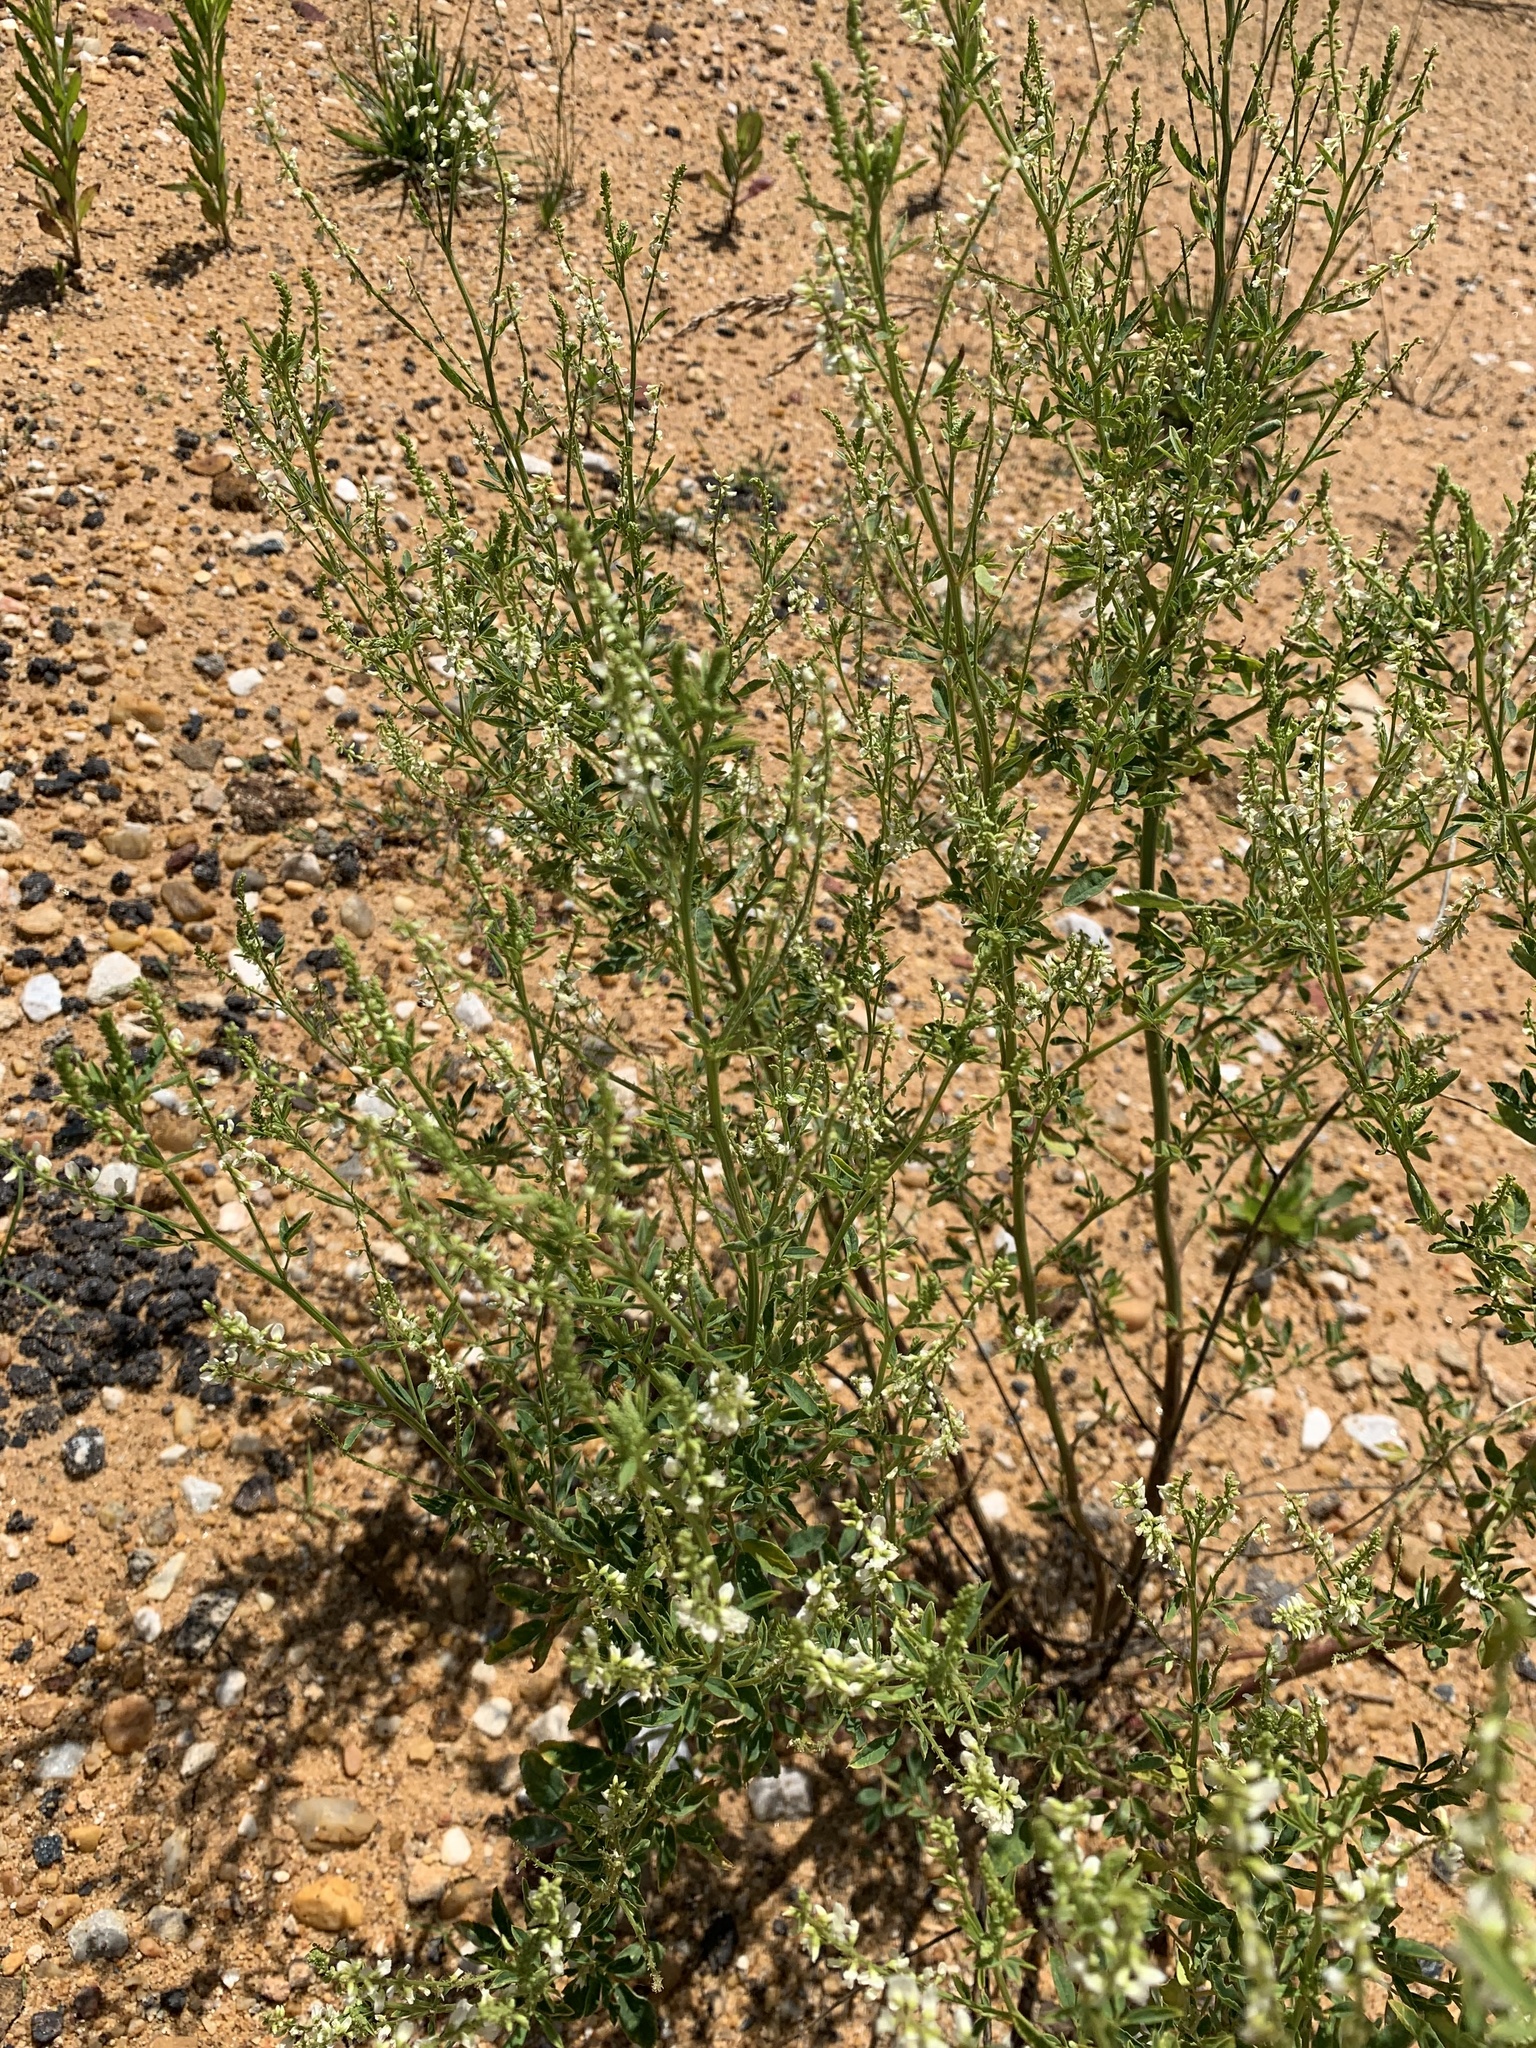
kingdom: Plantae
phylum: Tracheophyta
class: Magnoliopsida
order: Fabales
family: Fabaceae
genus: Melilotus
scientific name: Melilotus albus
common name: White melilot
